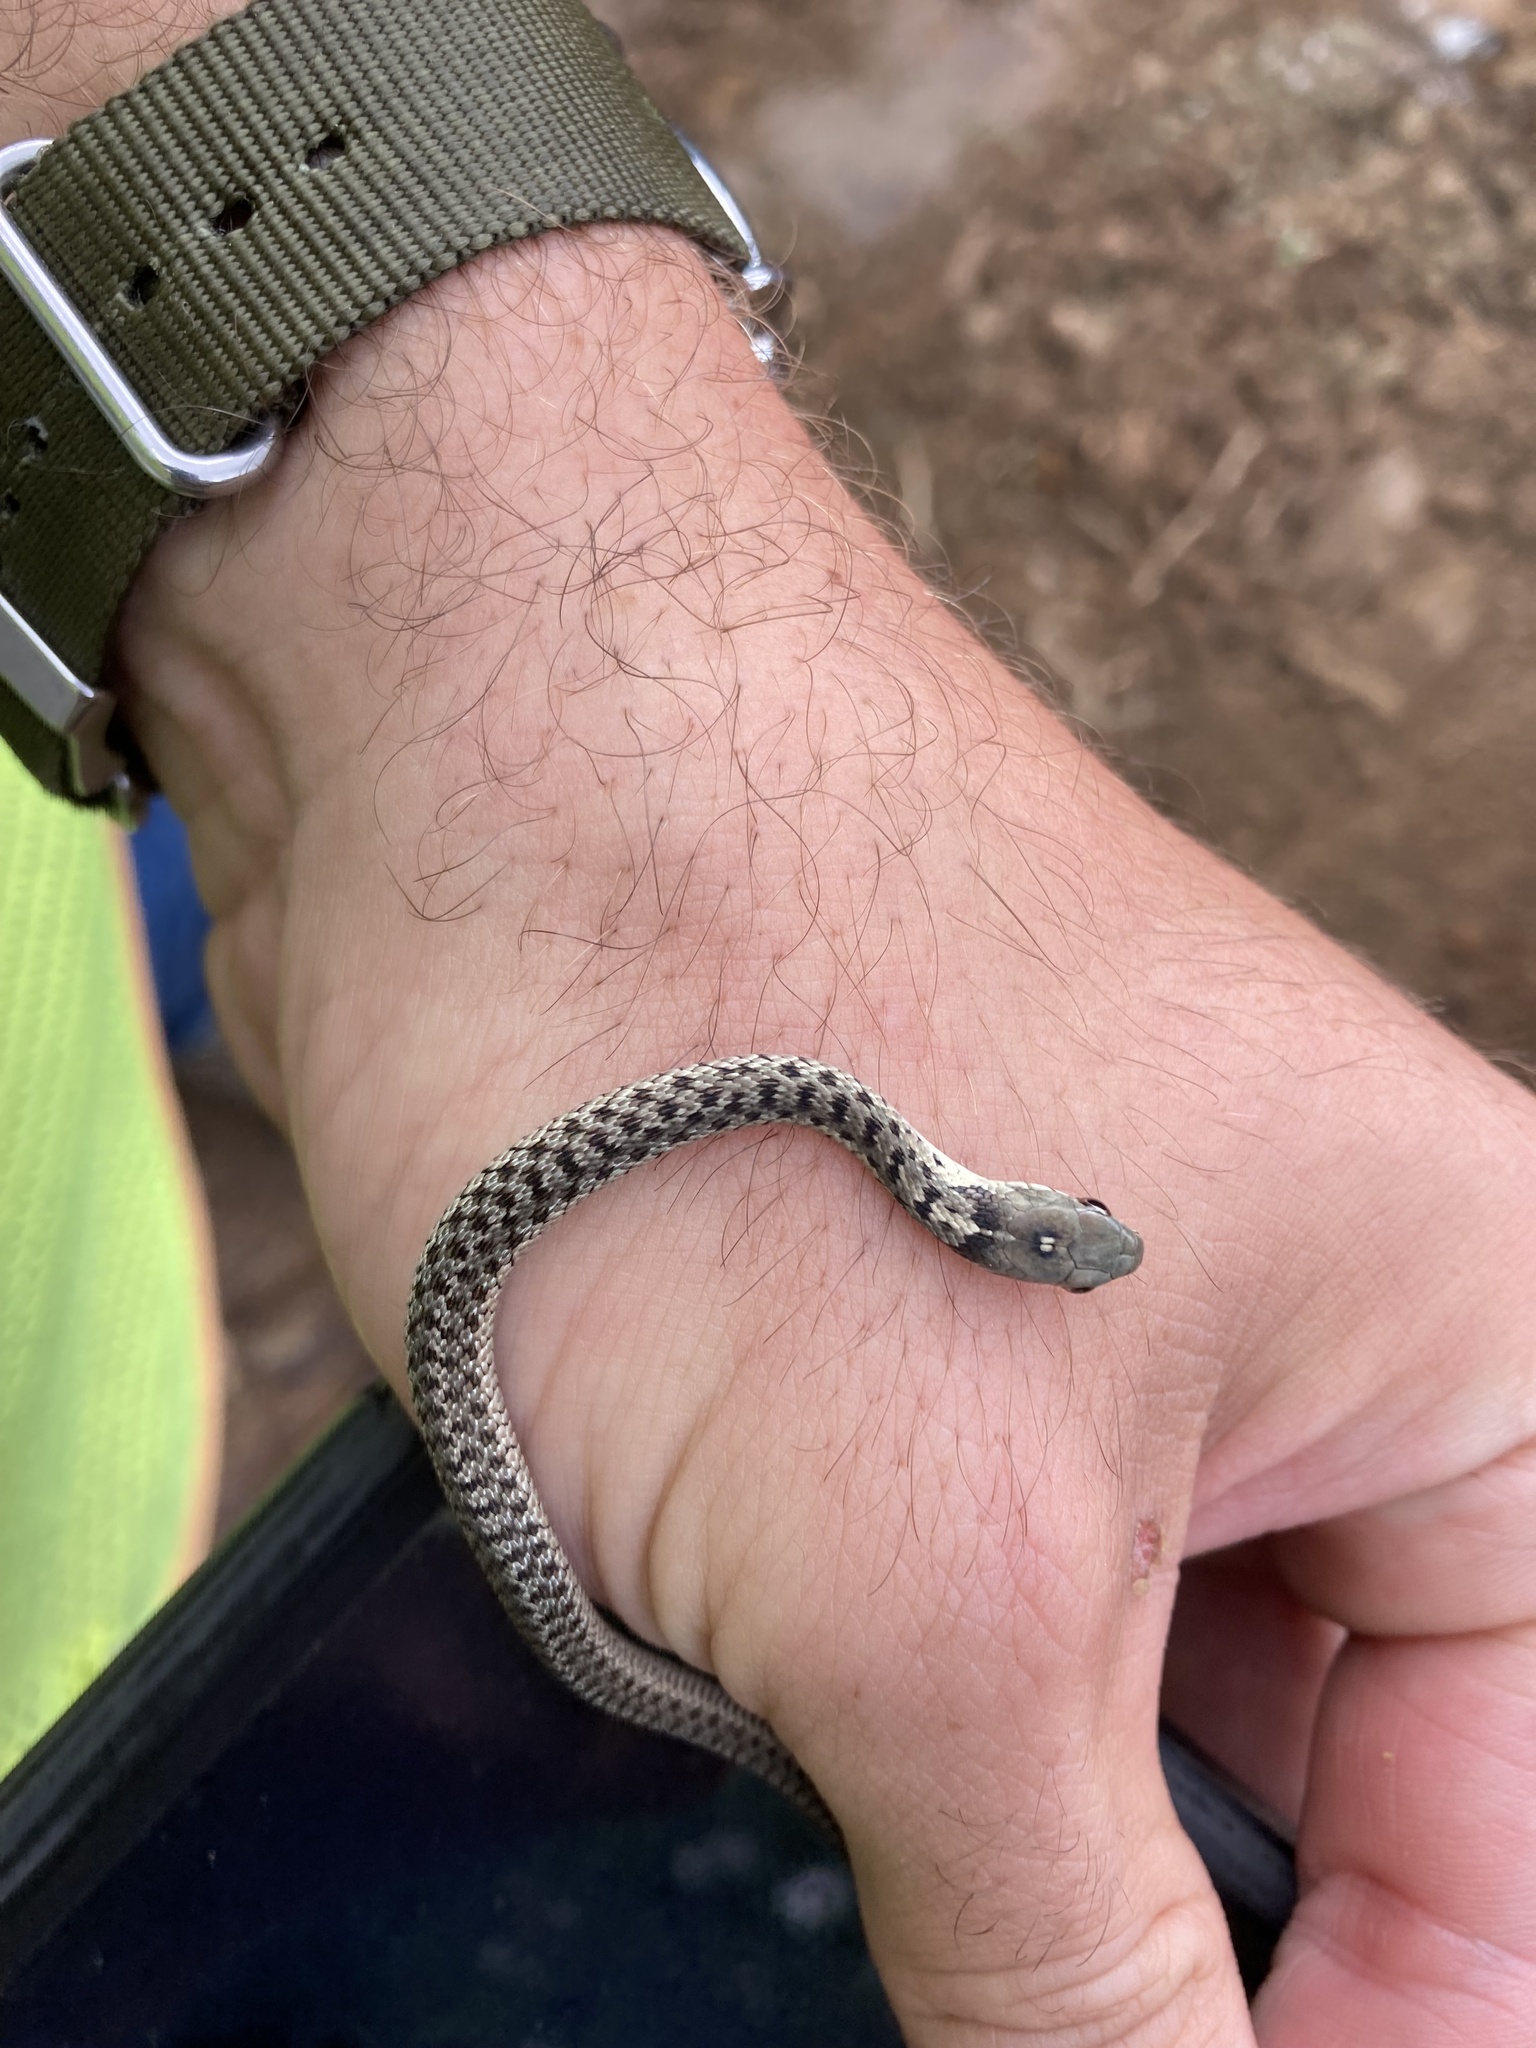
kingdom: Animalia
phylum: Chordata
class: Squamata
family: Colubridae
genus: Thamnophis
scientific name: Thamnophis sirtalis
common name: Common garter snake
